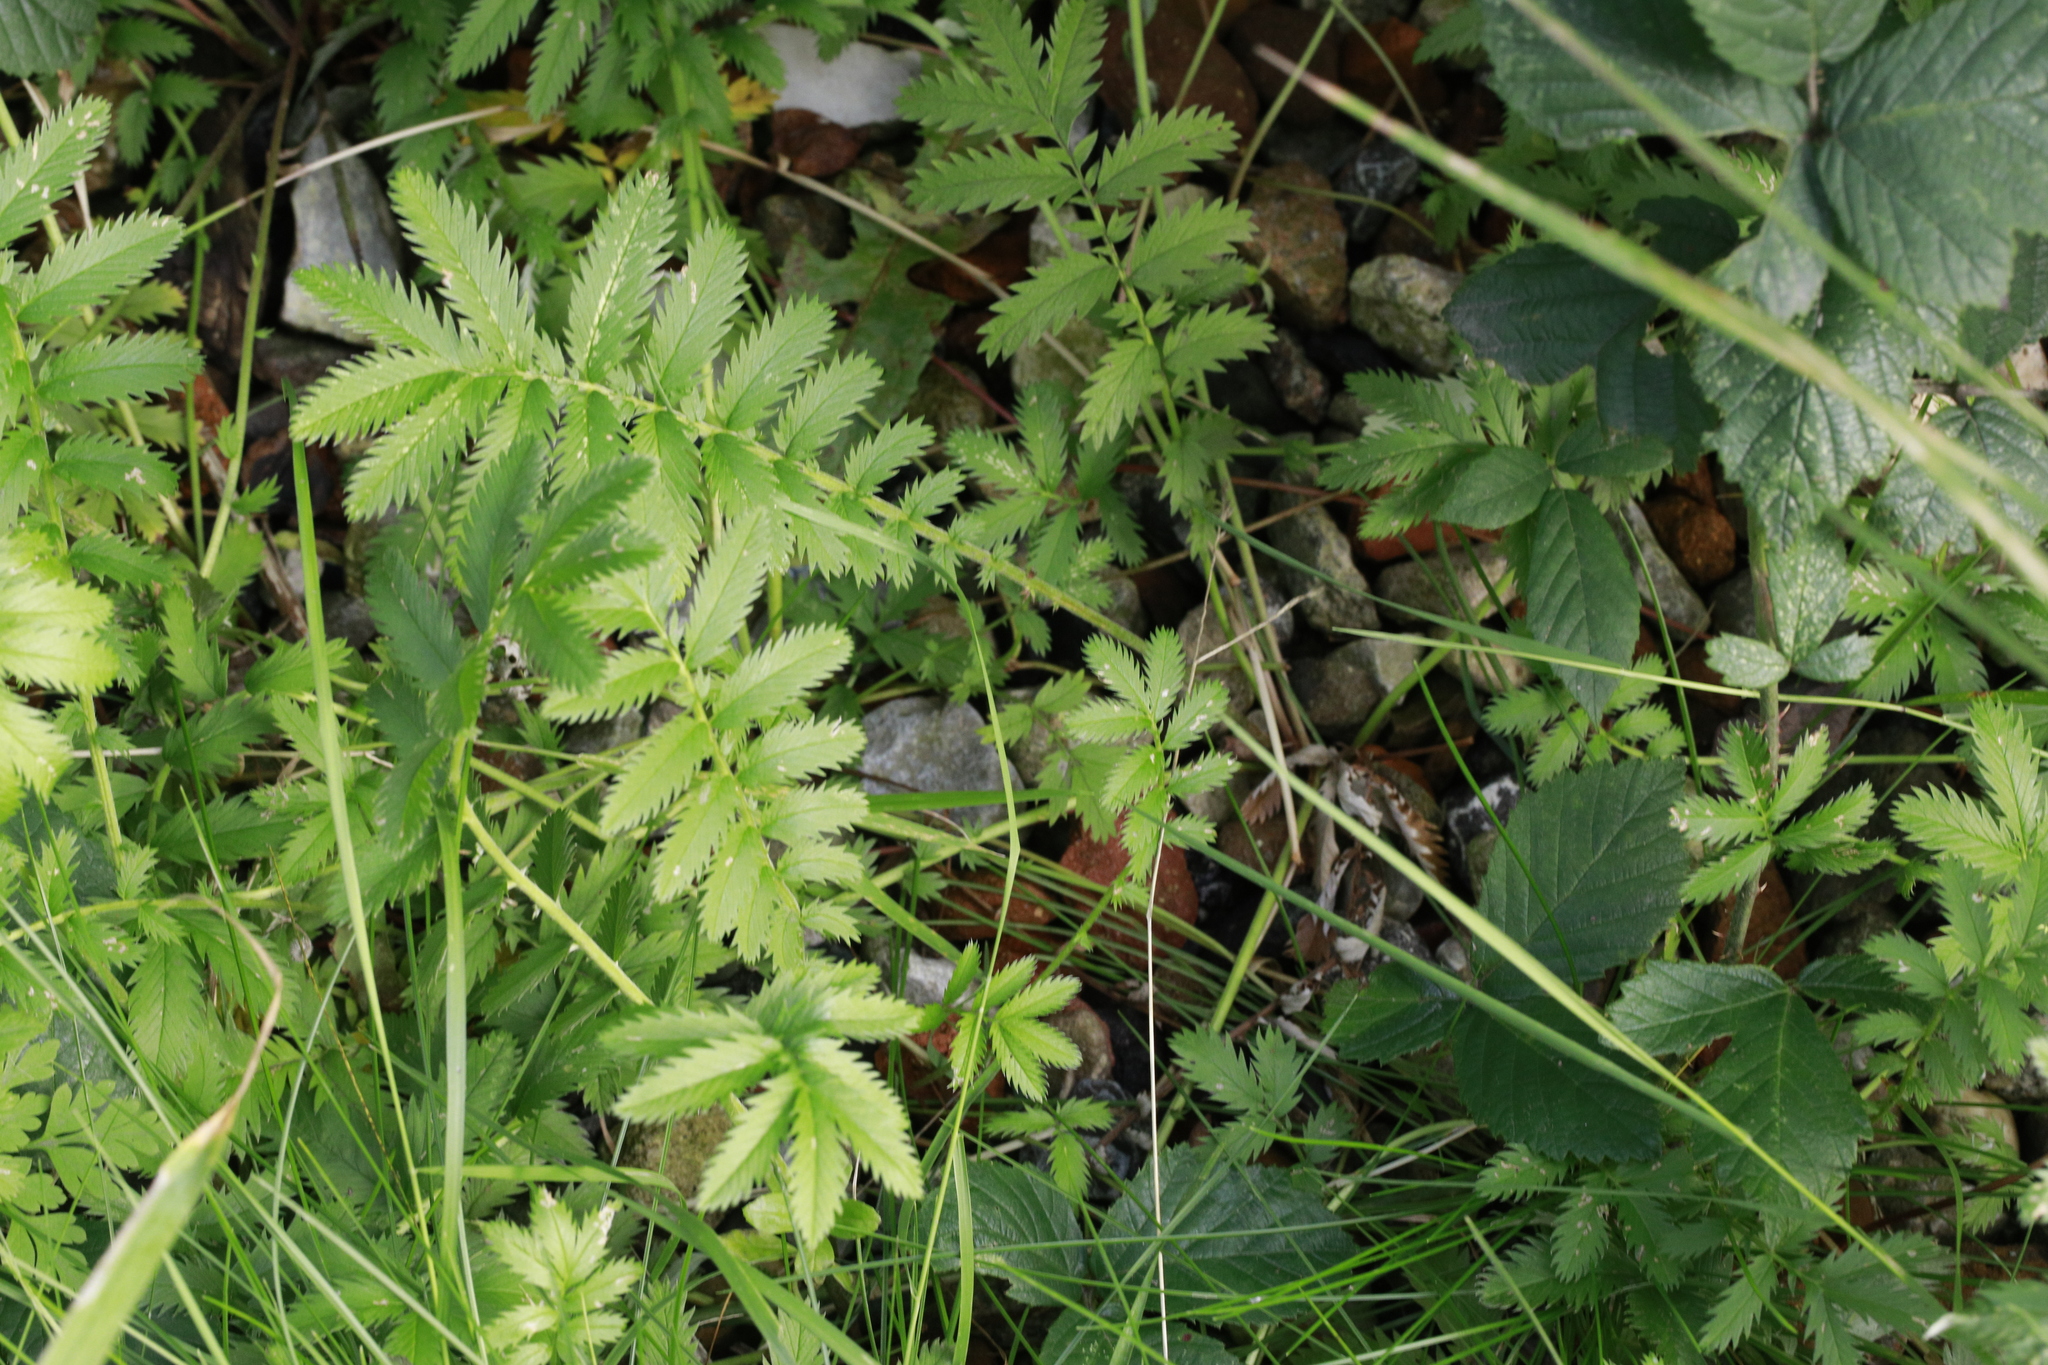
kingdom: Plantae
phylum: Tracheophyta
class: Magnoliopsida
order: Rosales
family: Rosaceae
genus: Argentina
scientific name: Argentina anserina
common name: Common silverweed
